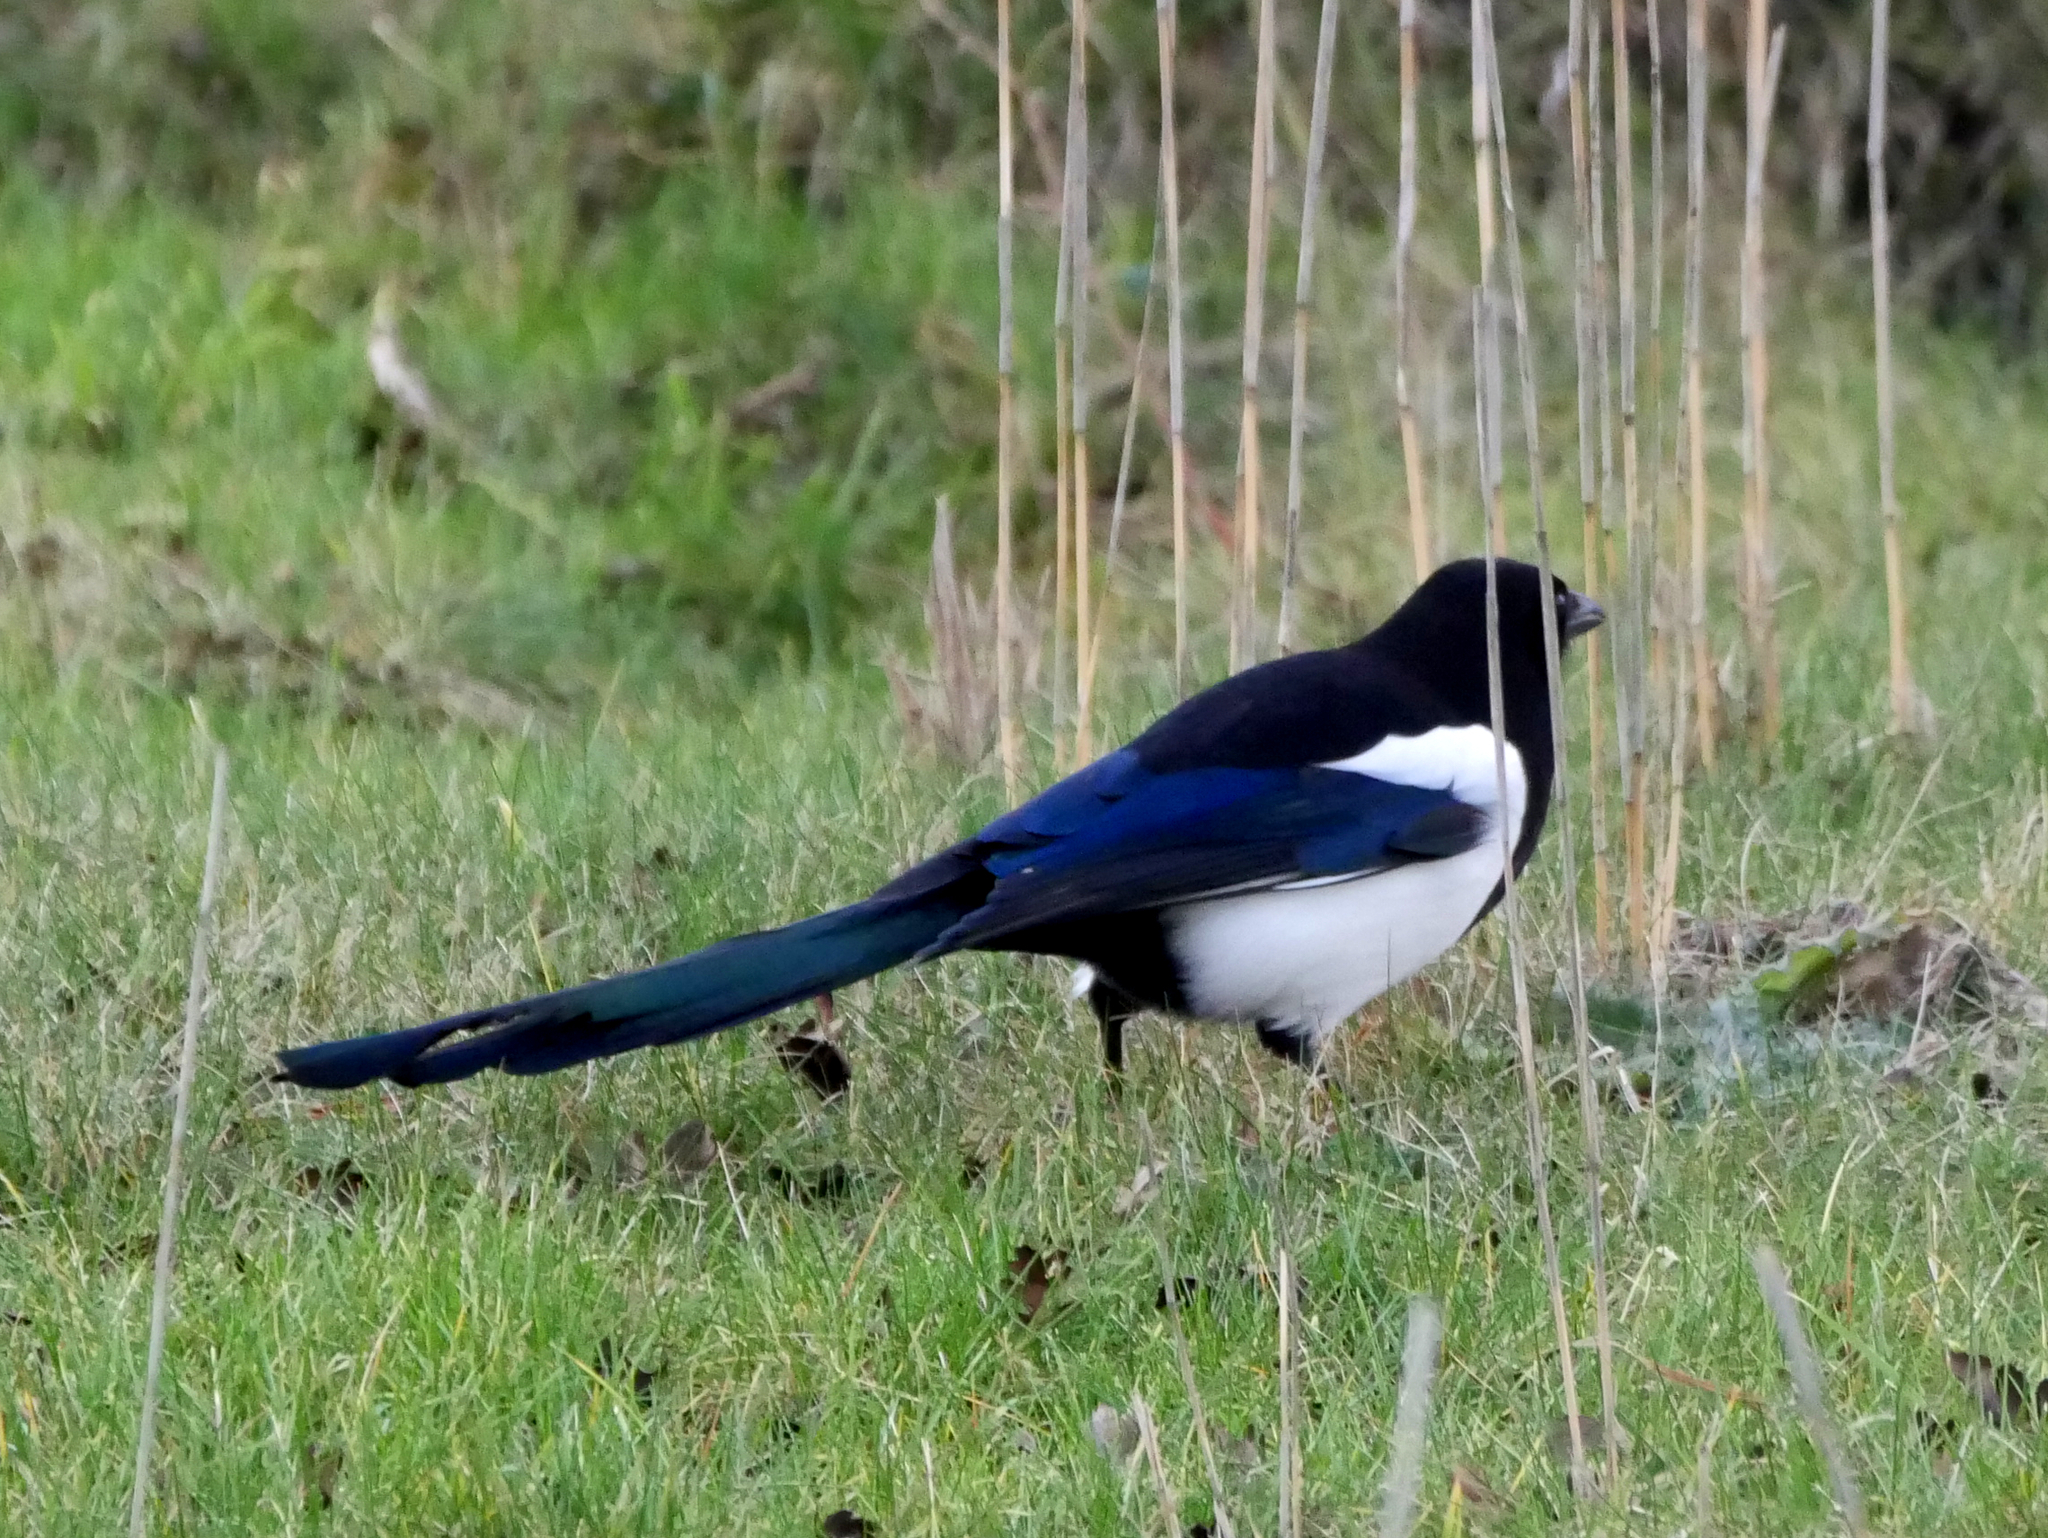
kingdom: Animalia
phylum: Chordata
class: Aves
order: Passeriformes
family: Corvidae
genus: Pica
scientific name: Pica pica
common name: Eurasian magpie
